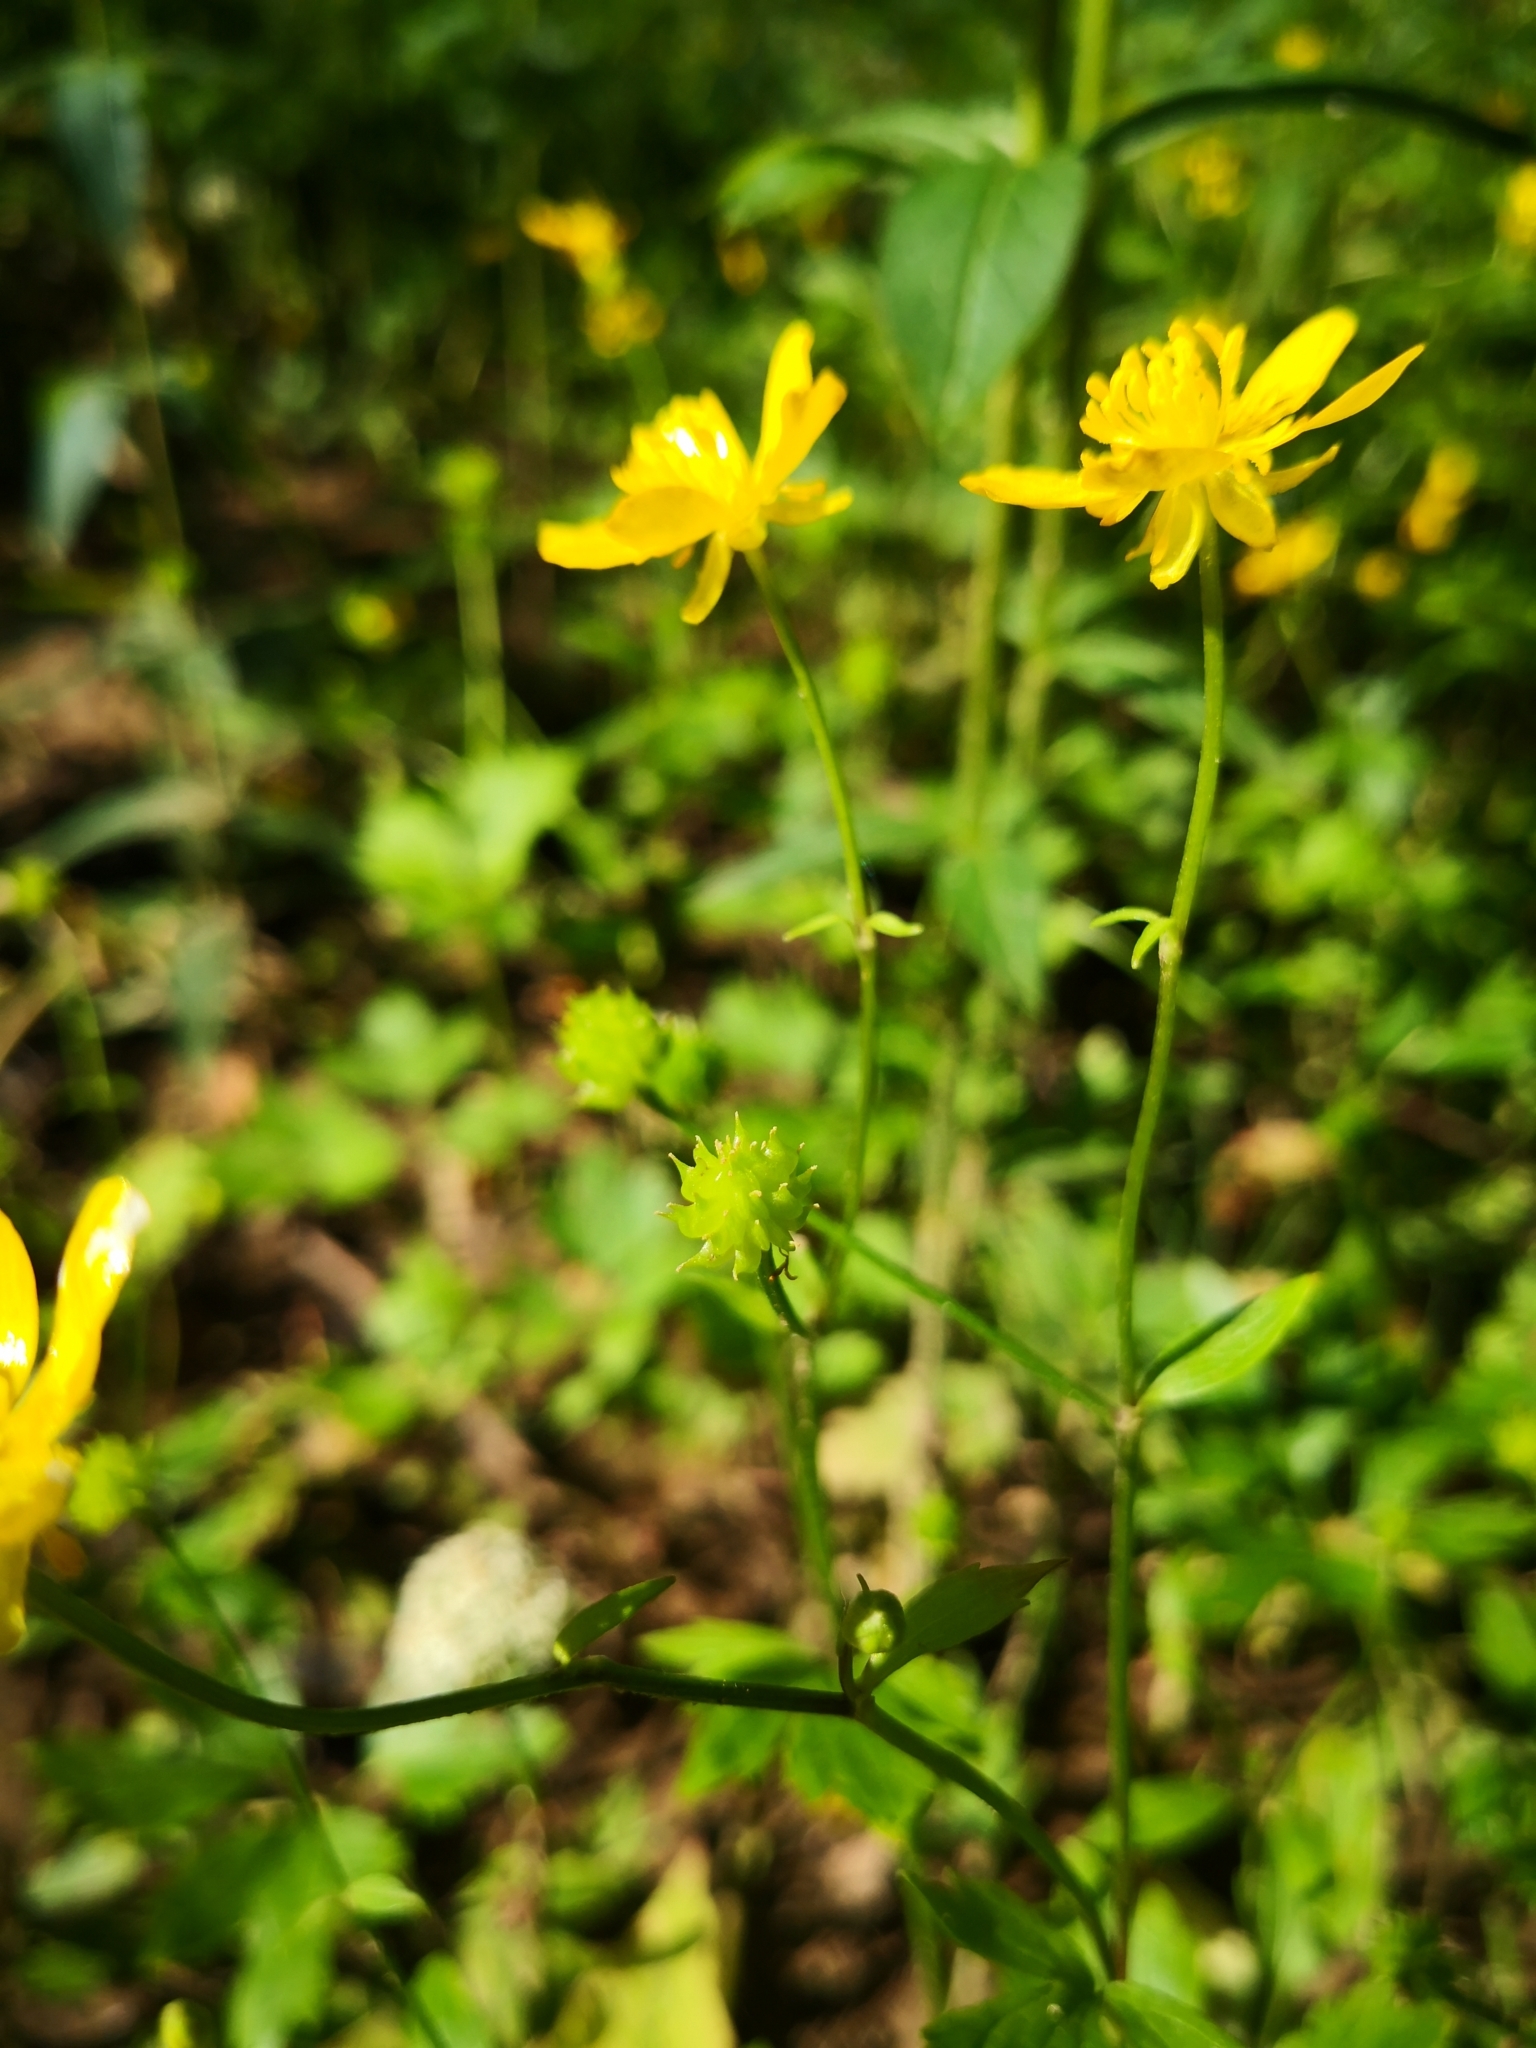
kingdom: Plantae
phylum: Tracheophyta
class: Magnoliopsida
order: Ranunculales
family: Ranunculaceae
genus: Ranunculus
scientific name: Ranunculus repens
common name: Creeping buttercup
